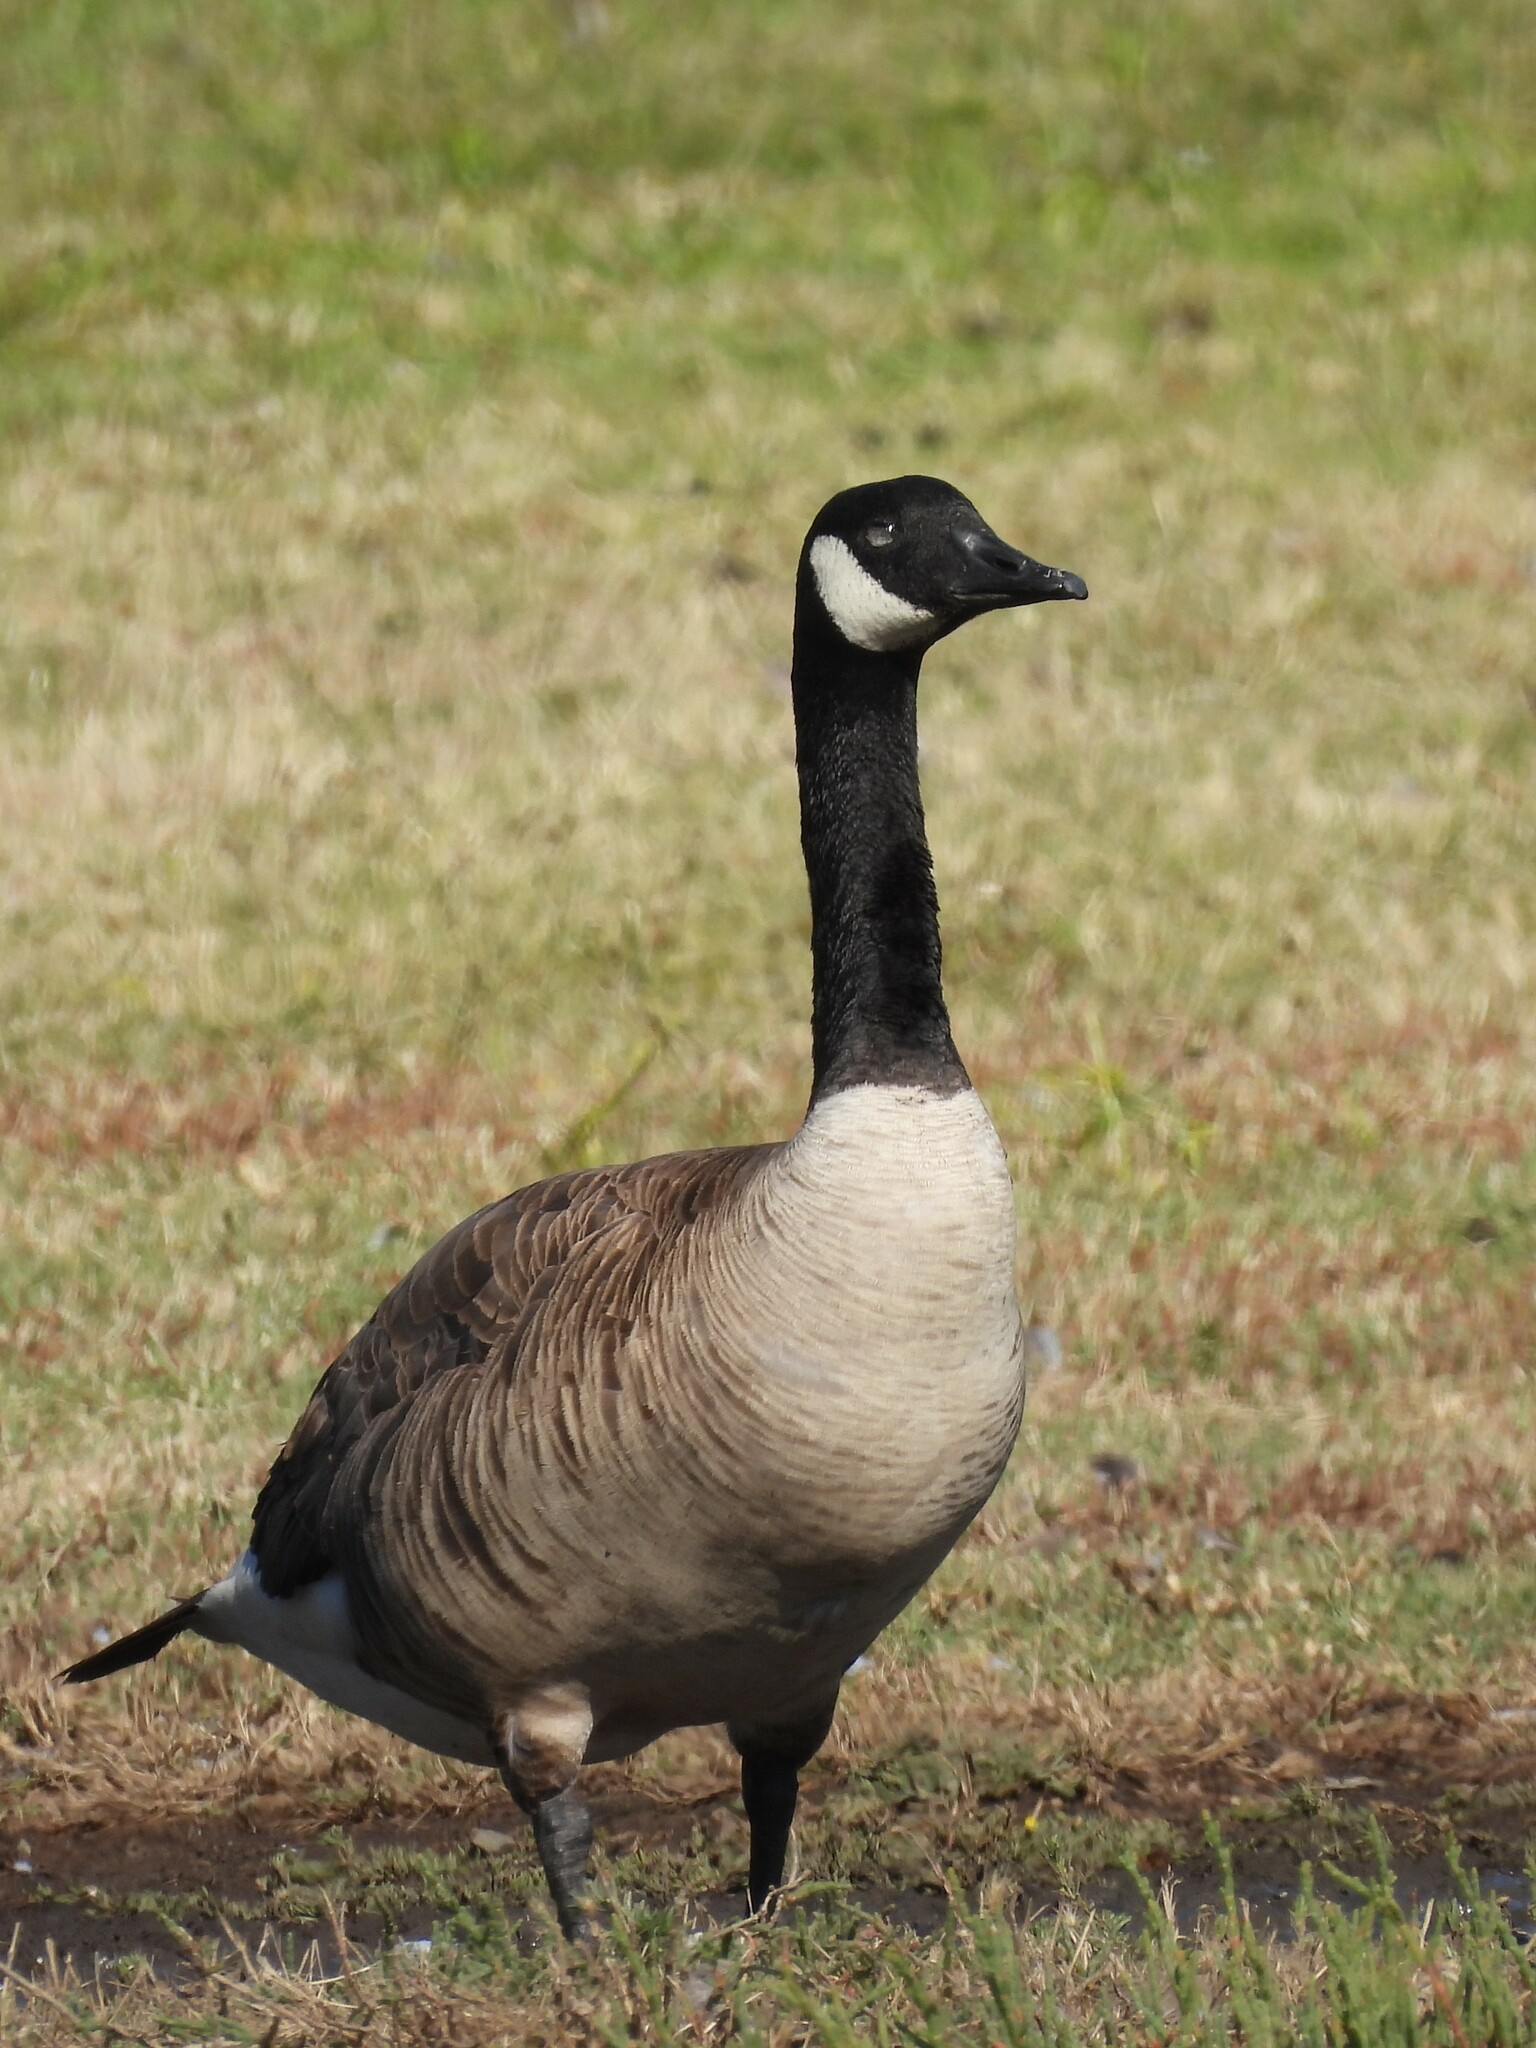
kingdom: Animalia
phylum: Chordata
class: Aves
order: Anseriformes
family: Anatidae
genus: Branta
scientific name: Branta canadensis
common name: Canada goose
